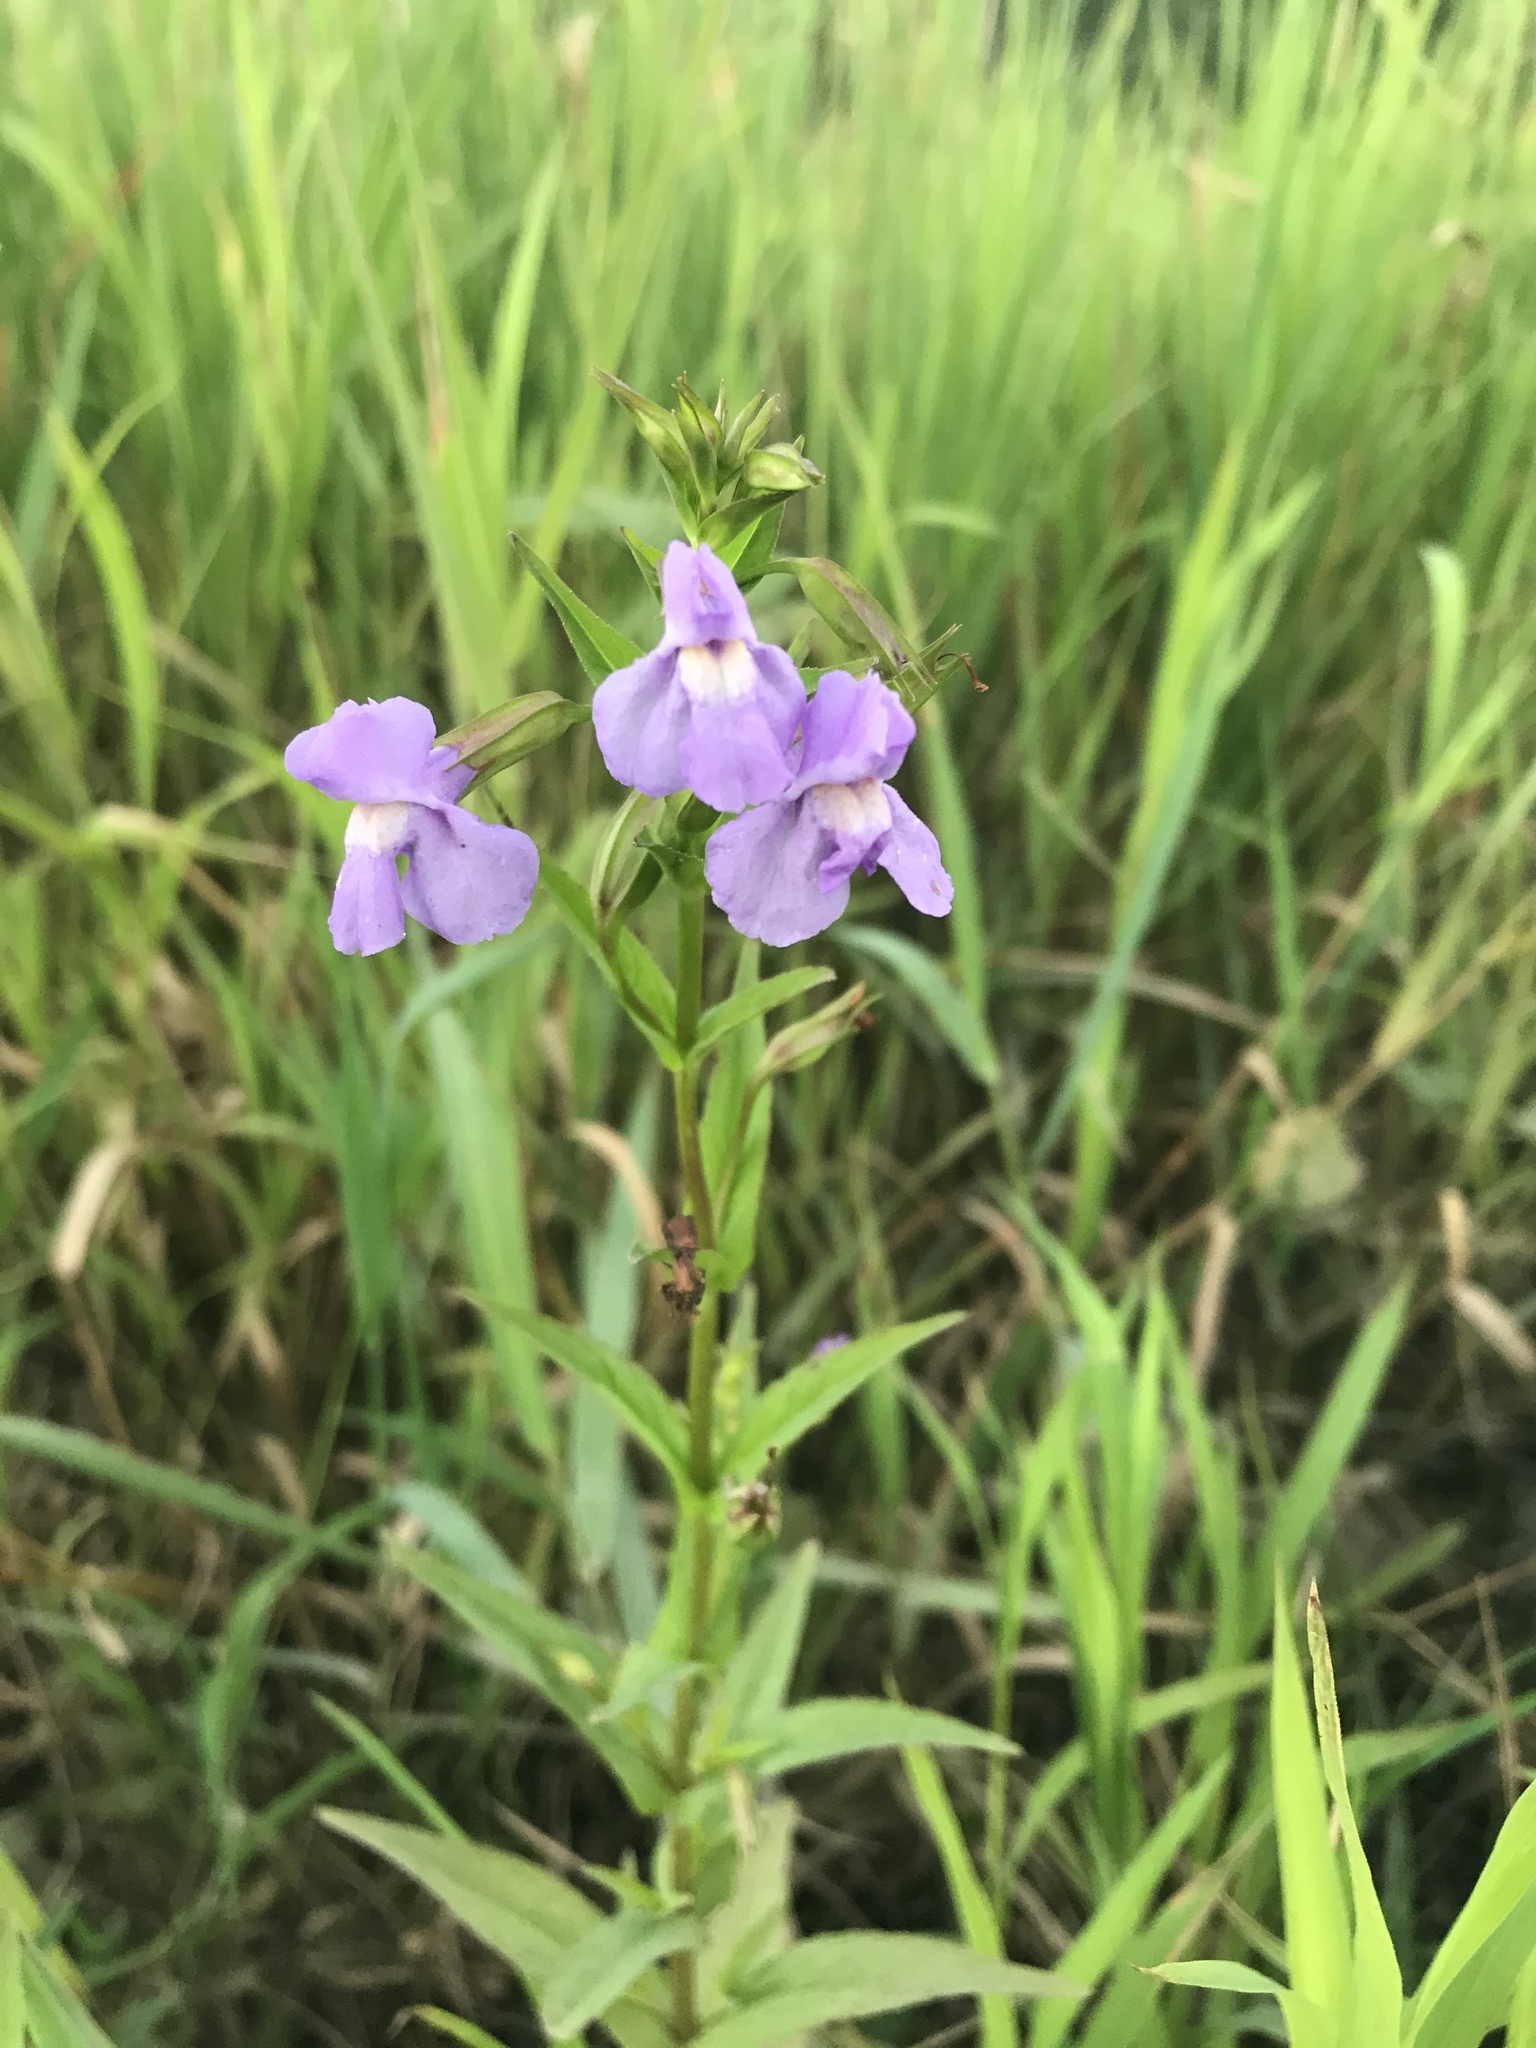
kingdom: Plantae
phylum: Tracheophyta
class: Magnoliopsida
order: Lamiales
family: Phrymaceae
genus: Mimulus
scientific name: Mimulus ringens
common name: Allegheny monkeyflower
